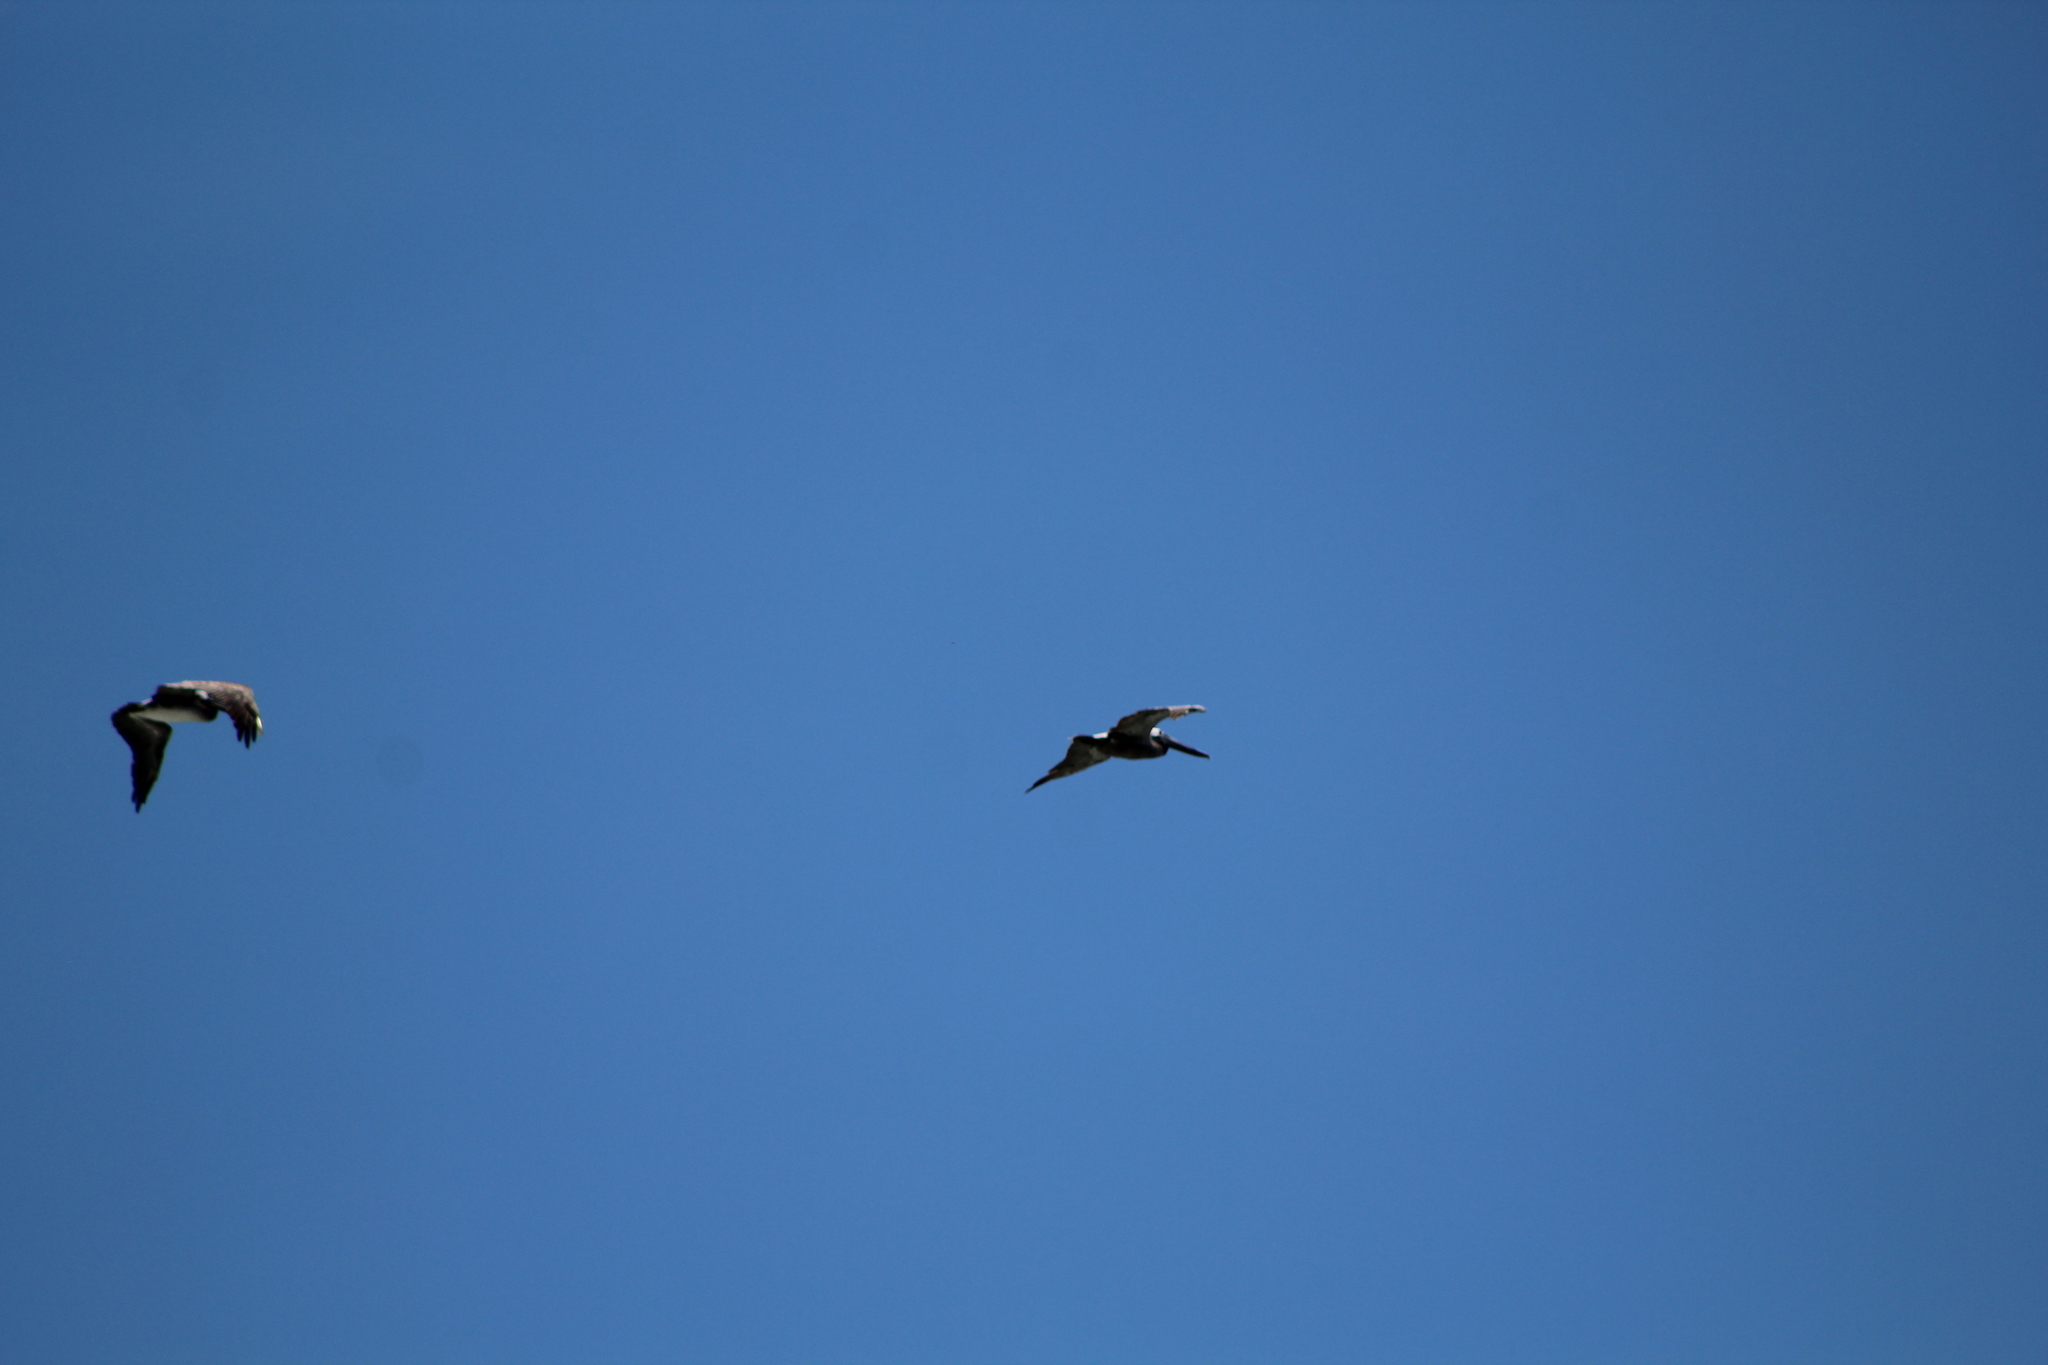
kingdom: Animalia
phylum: Chordata
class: Aves
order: Pelecaniformes
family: Pelecanidae
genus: Pelecanus
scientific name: Pelecanus occidentalis
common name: Brown pelican
